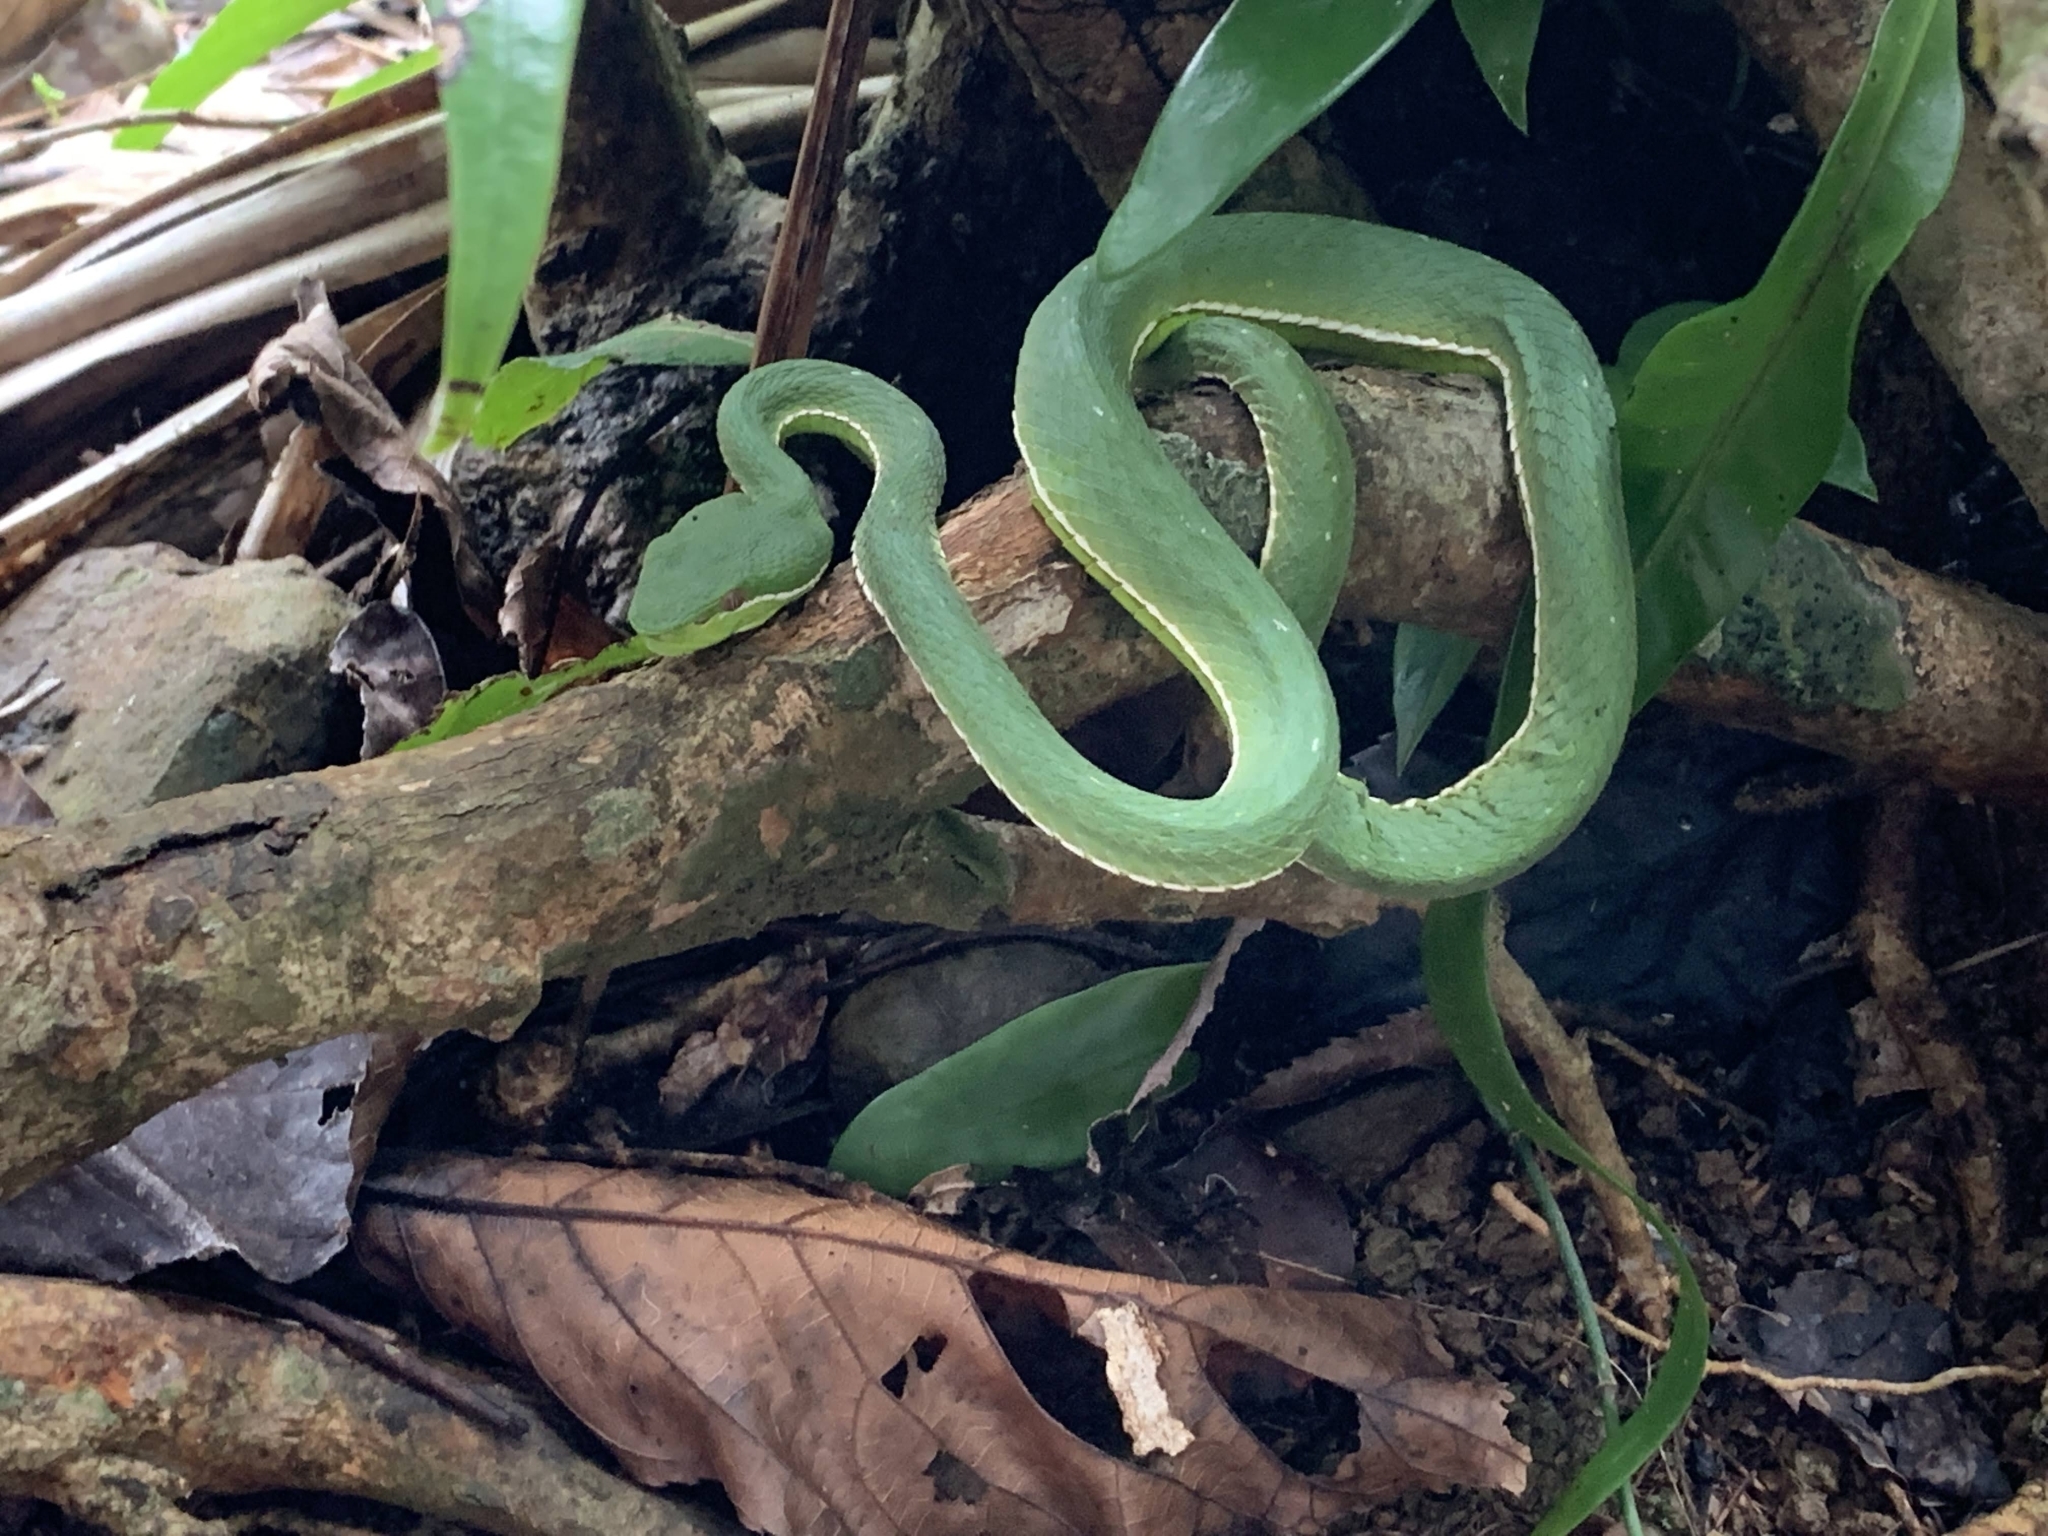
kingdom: Animalia
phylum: Chordata
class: Squamata
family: Viperidae
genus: Trimeresurus
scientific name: Trimeresurus stejnegeri
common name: Chen’s bamboo pit viper
